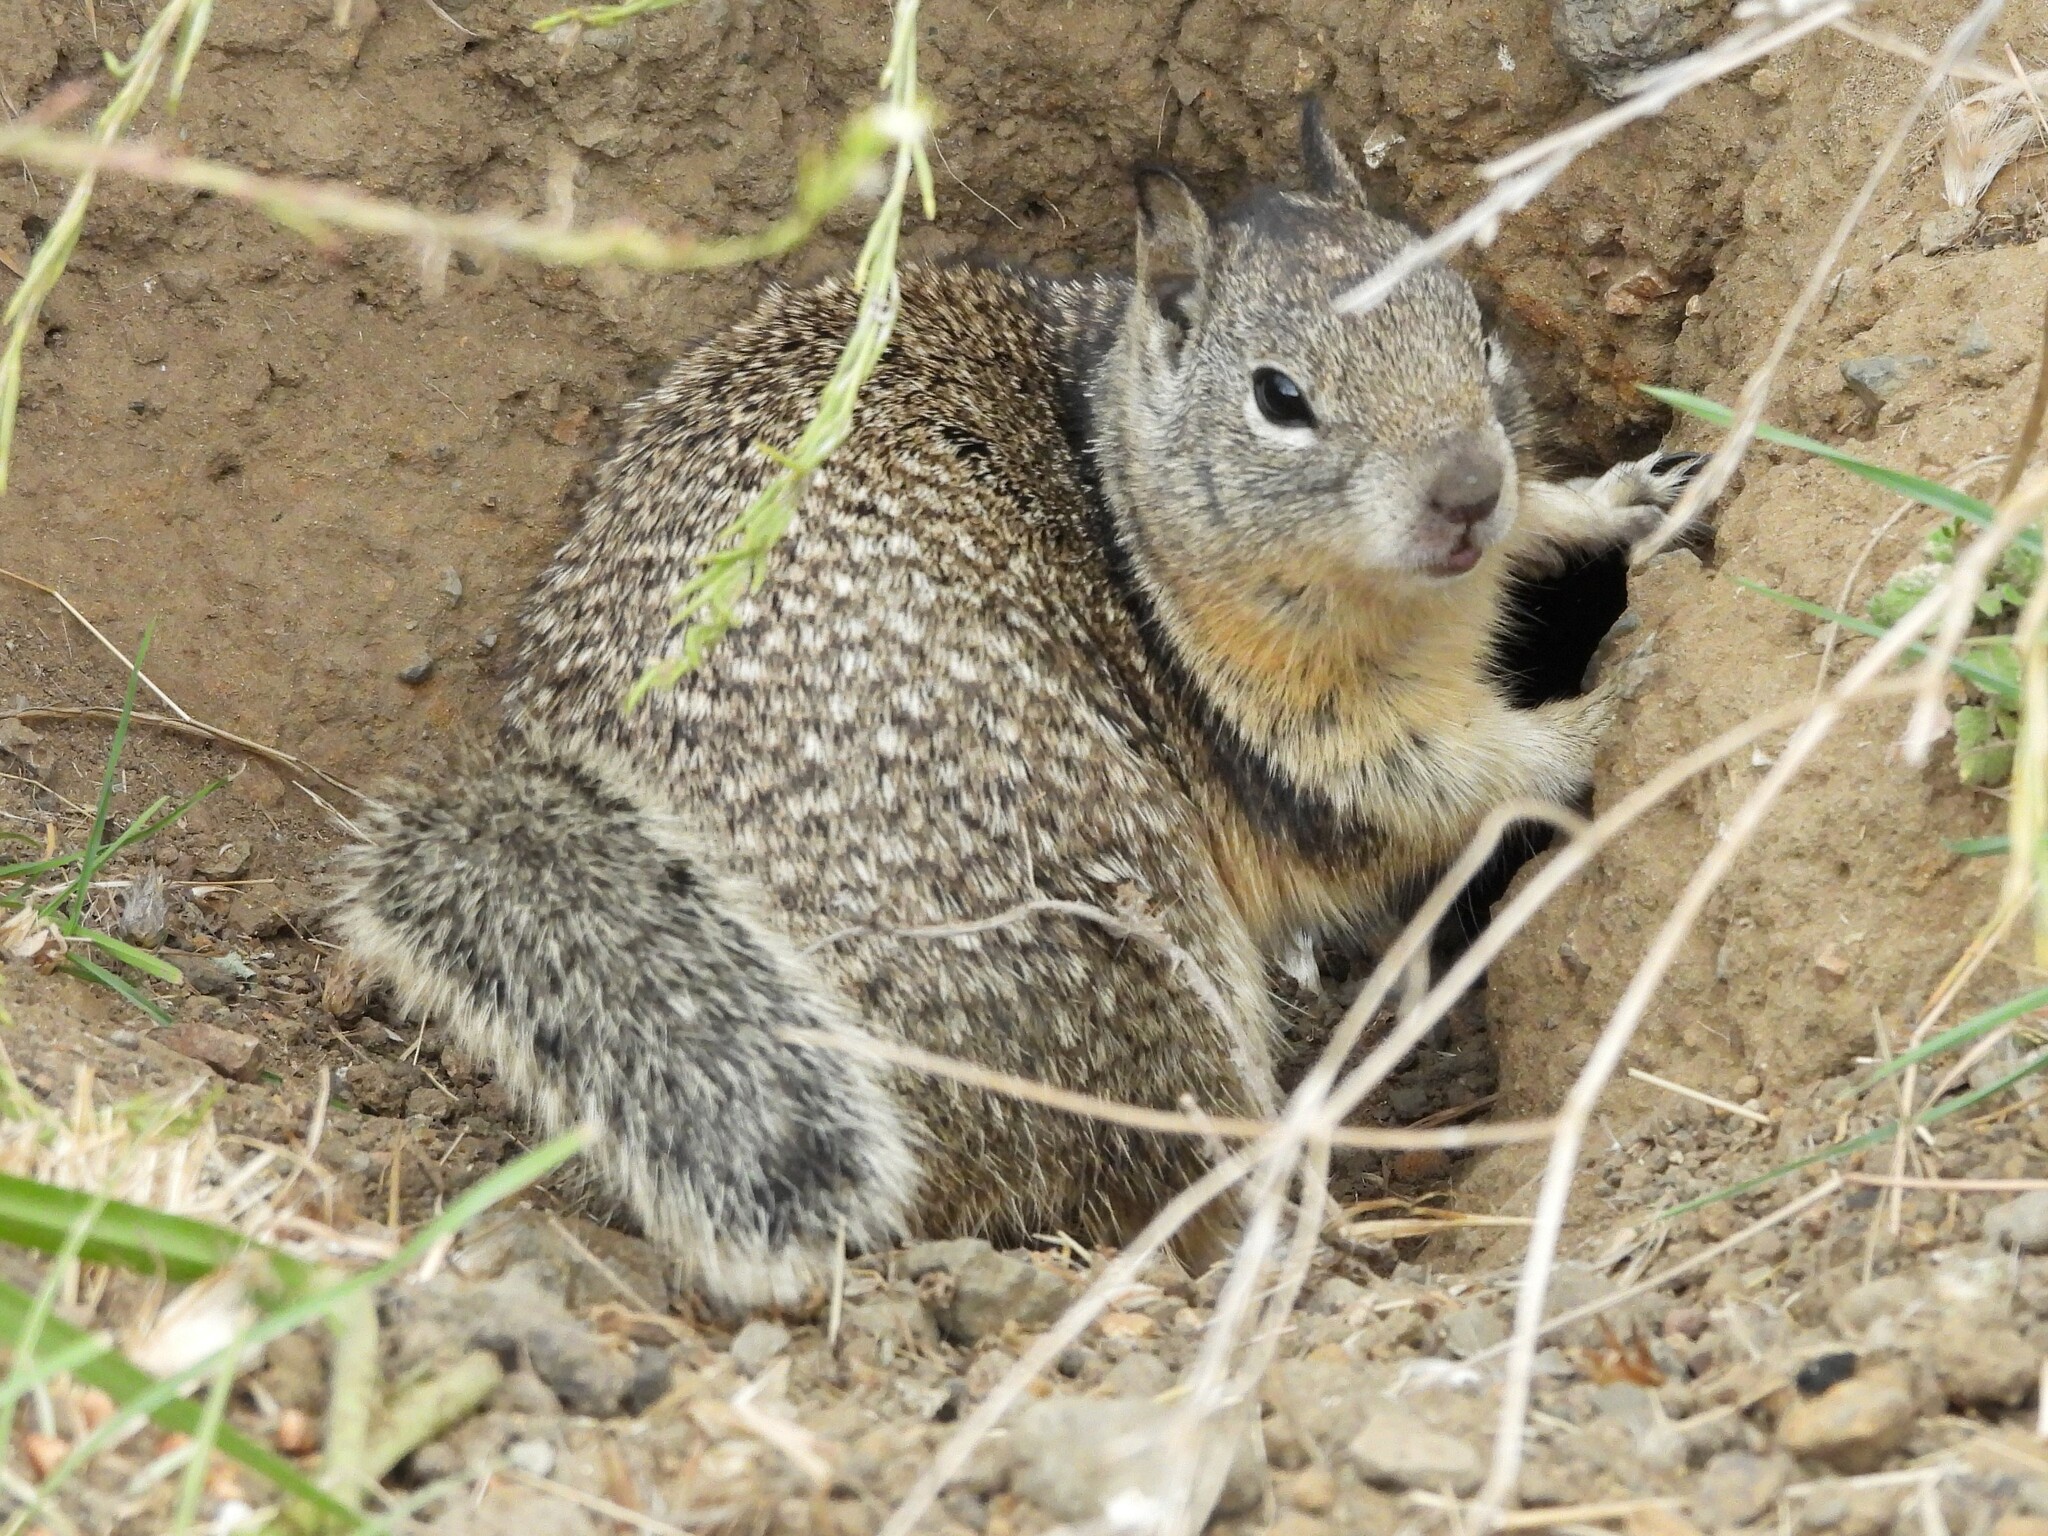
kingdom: Animalia
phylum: Chordata
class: Mammalia
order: Rodentia
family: Sciuridae
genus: Otospermophilus
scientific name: Otospermophilus beecheyi
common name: California ground squirrel
